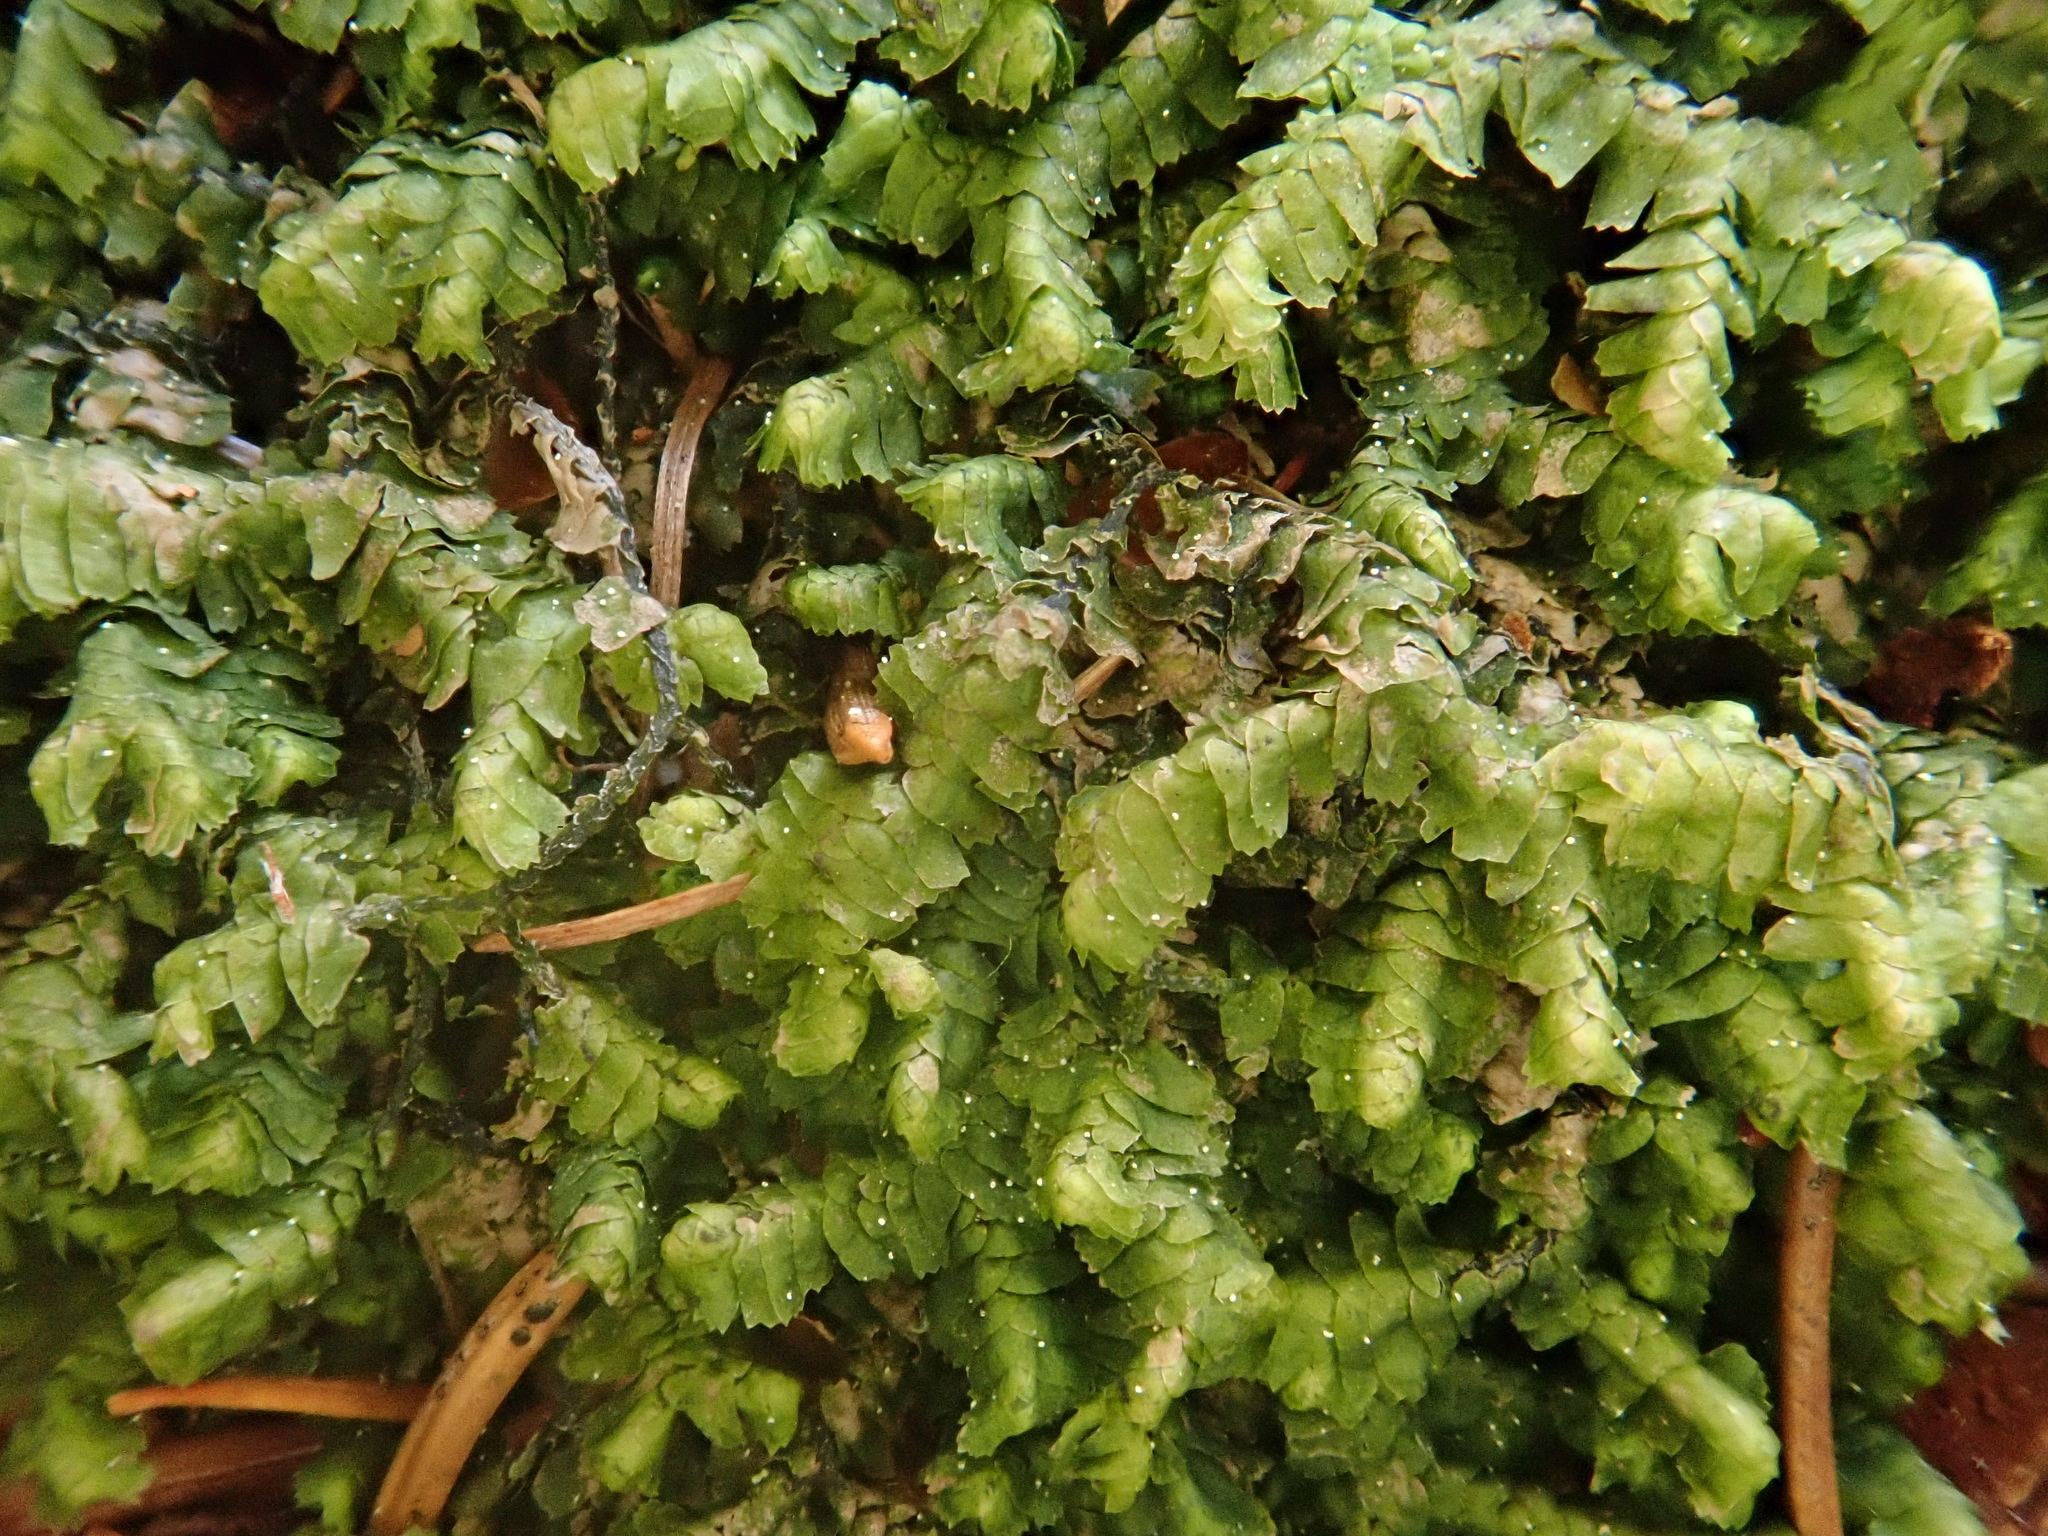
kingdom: Plantae
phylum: Marchantiophyta
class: Jungermanniopsida
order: Jungermanniales
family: Lepidoziaceae
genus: Bazzania
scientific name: Bazzania trilobata
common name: Three-lobed whipwort
